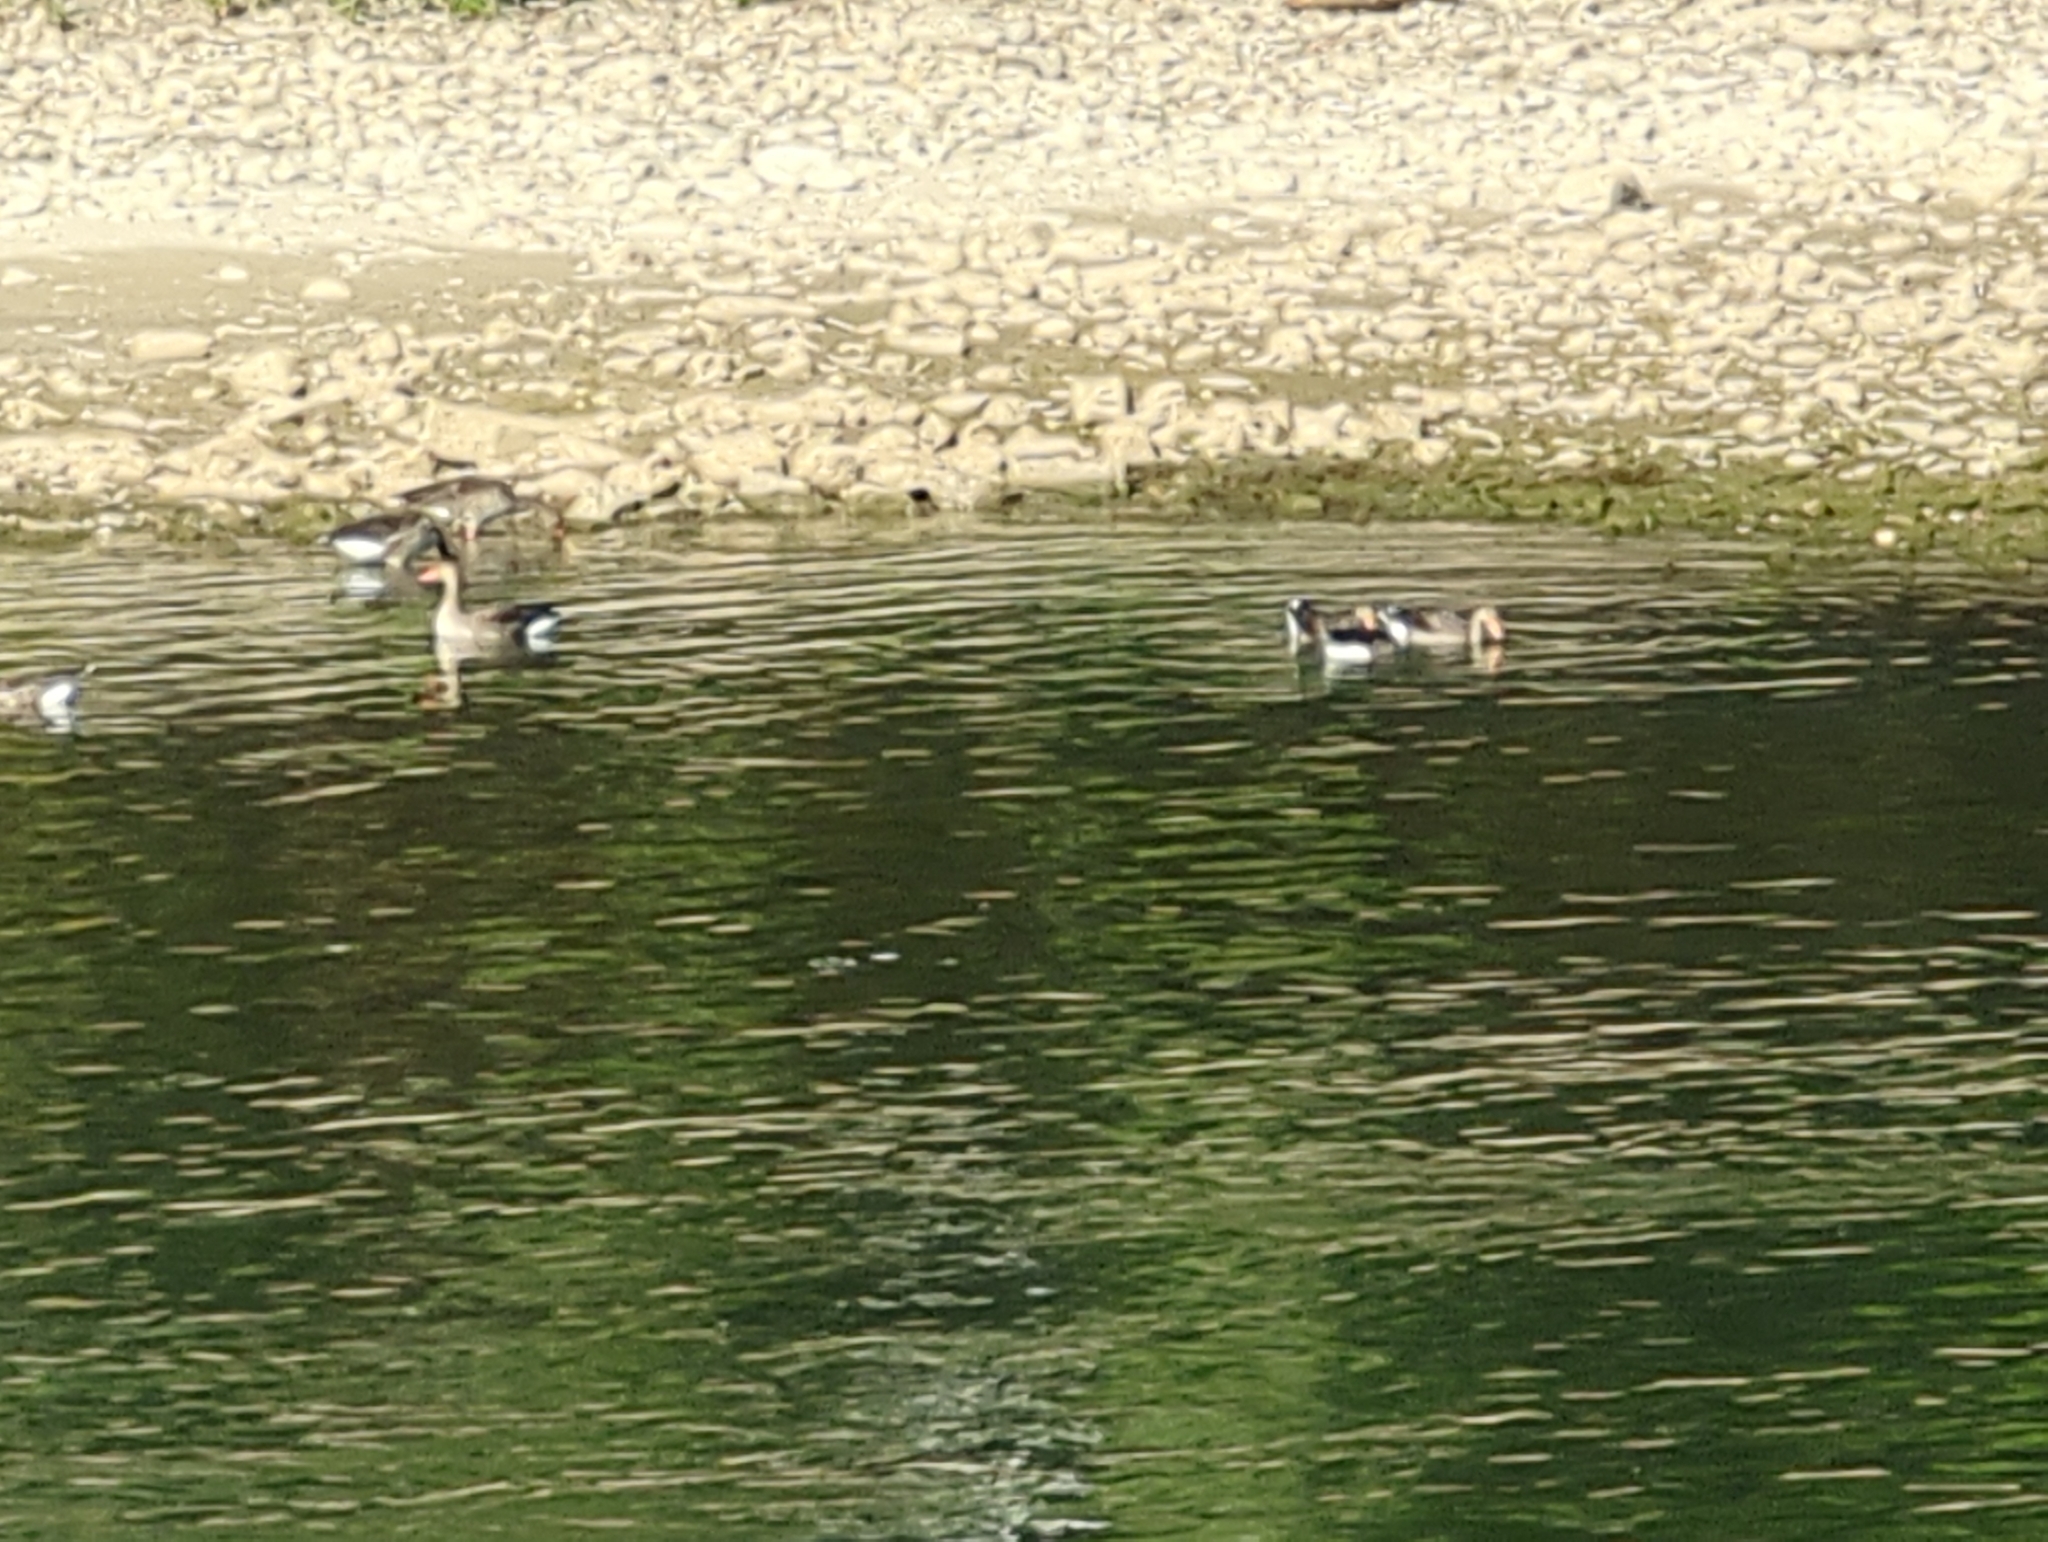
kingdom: Animalia
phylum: Chordata
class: Aves
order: Anseriformes
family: Anatidae
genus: Anser
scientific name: Anser anser
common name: Greylag goose
